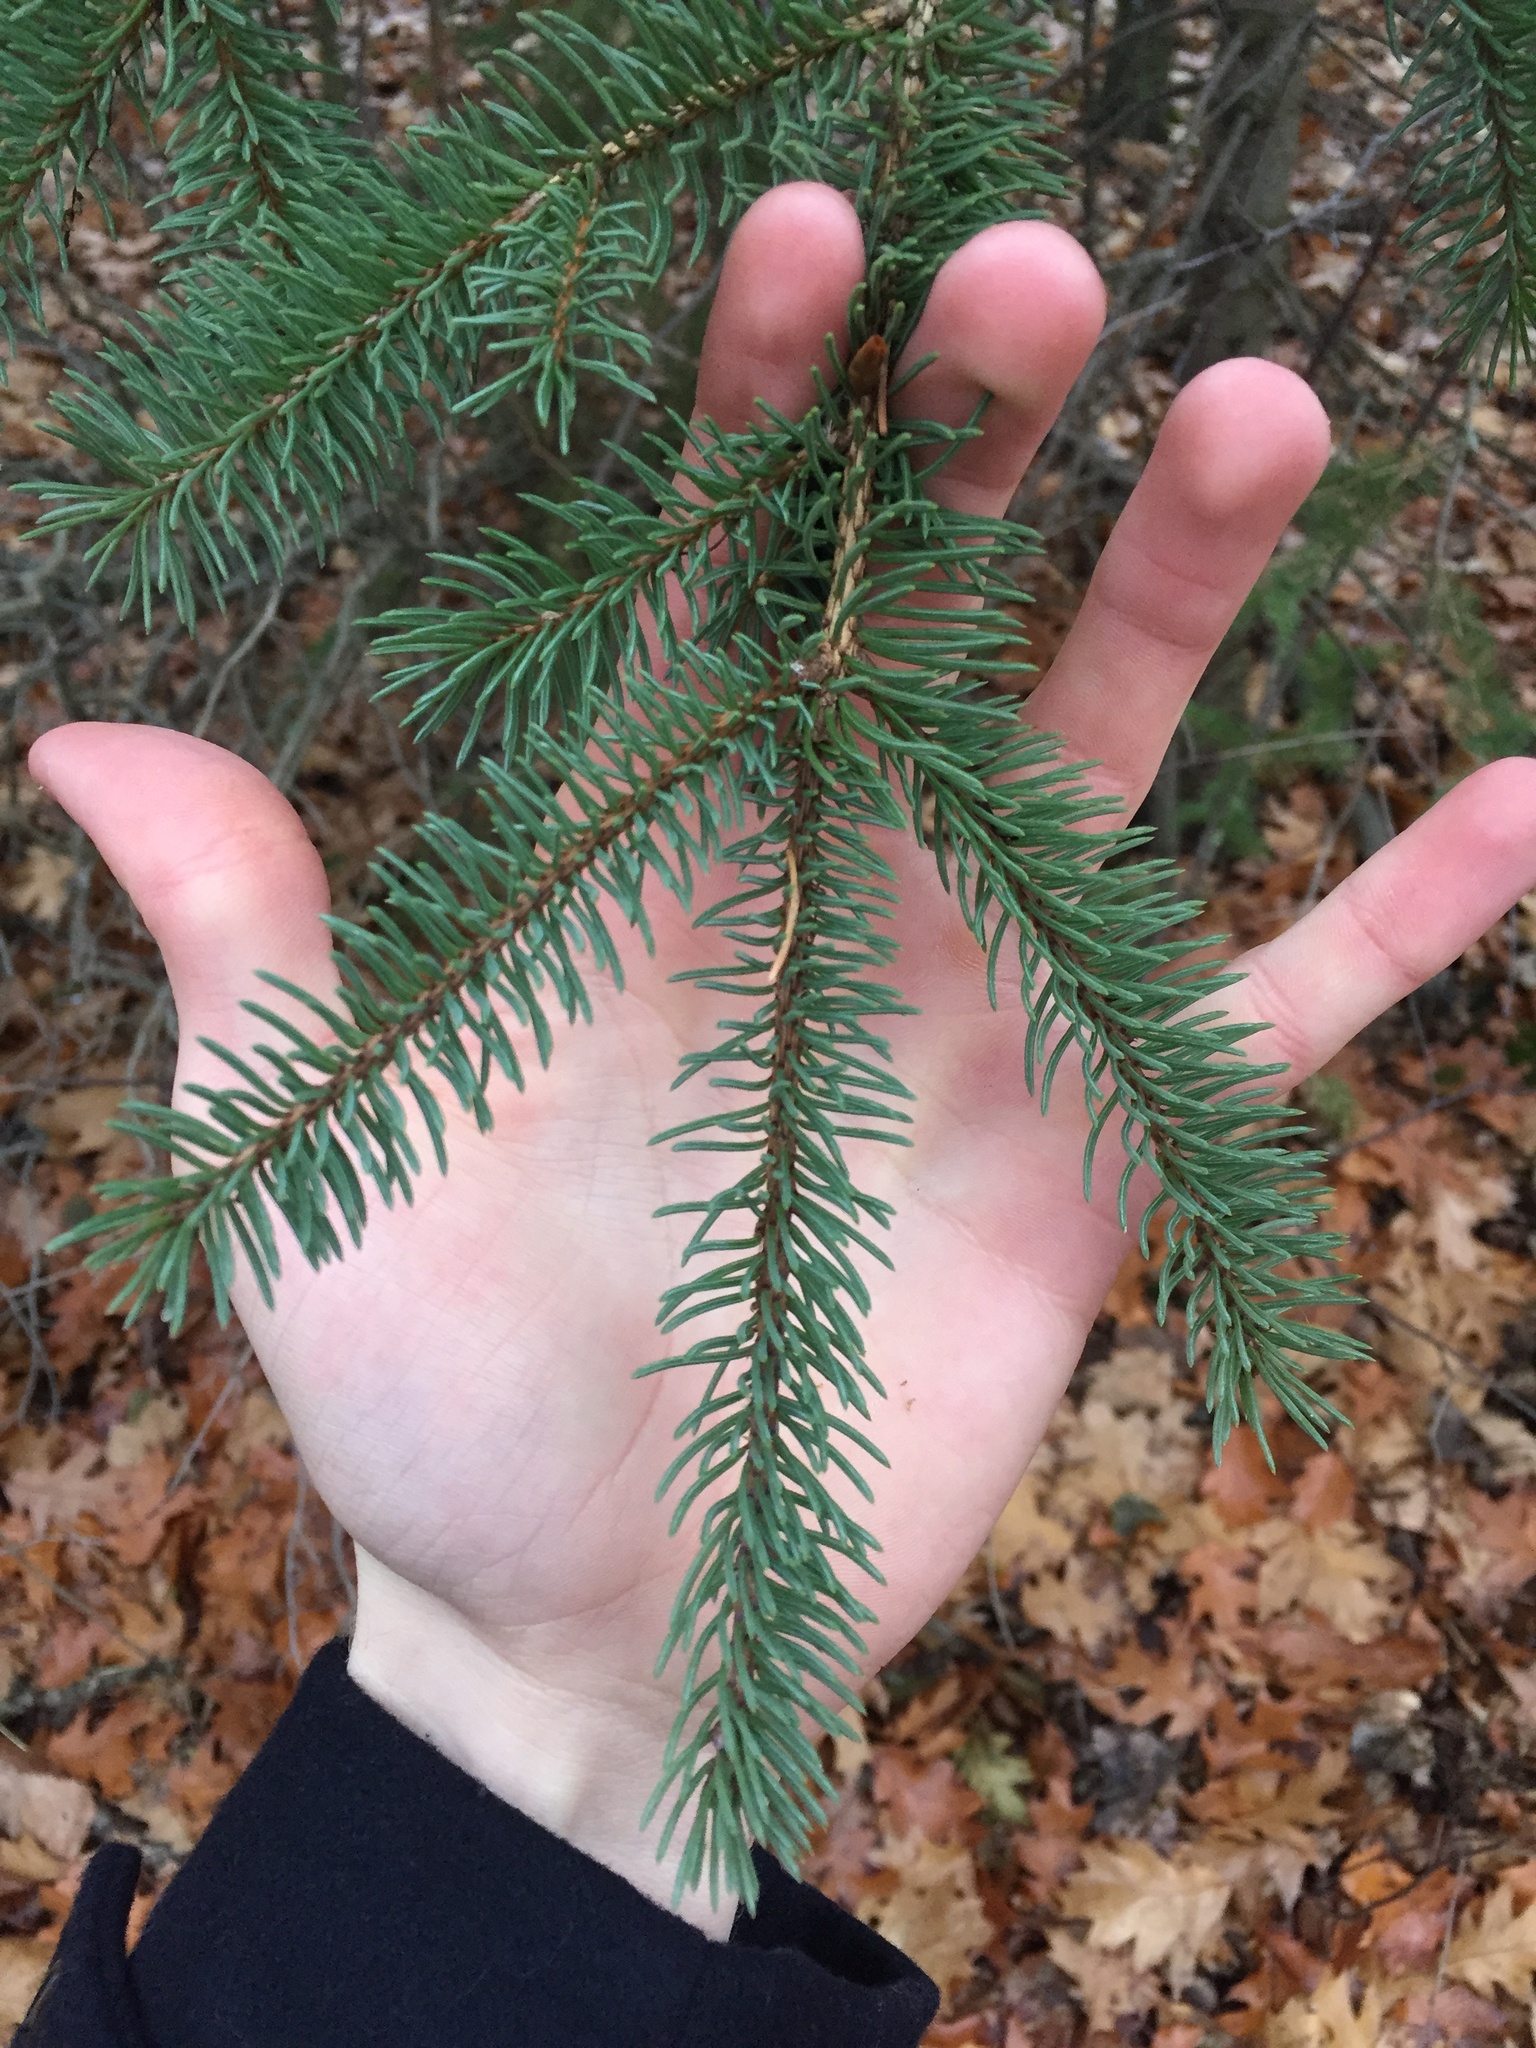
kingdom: Plantae
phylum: Tracheophyta
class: Pinopsida
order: Pinales
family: Pinaceae
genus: Picea
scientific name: Picea glauca
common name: White spruce
